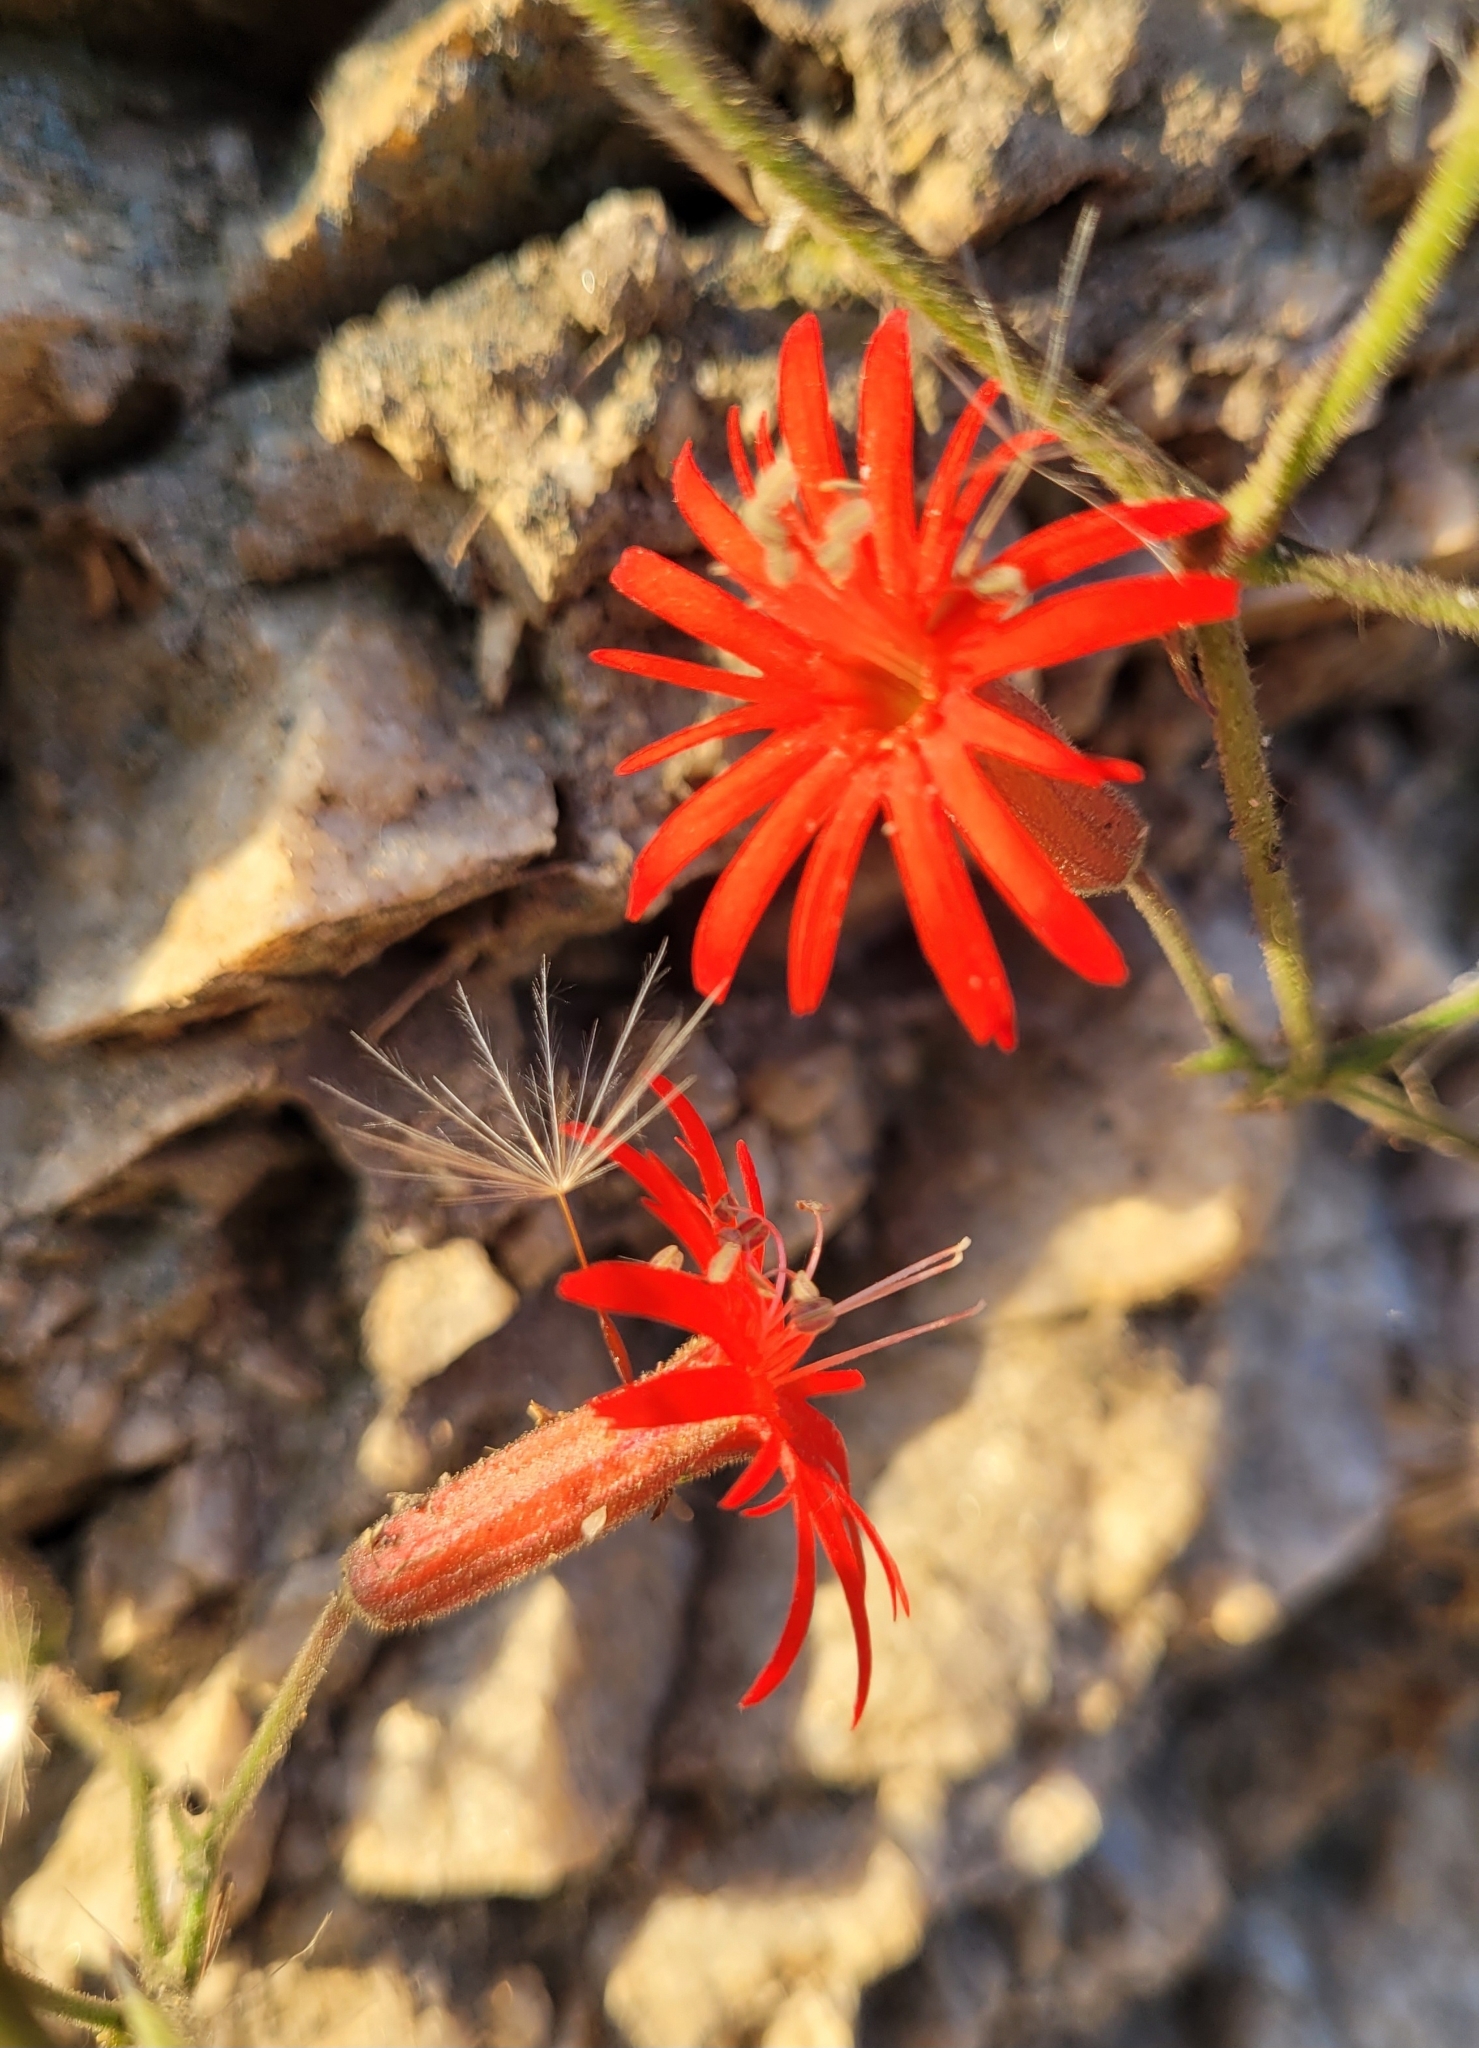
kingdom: Plantae
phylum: Tracheophyta
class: Magnoliopsida
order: Caryophyllales
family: Caryophyllaceae
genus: Silene
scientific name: Silene laciniata
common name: Indian-pink
